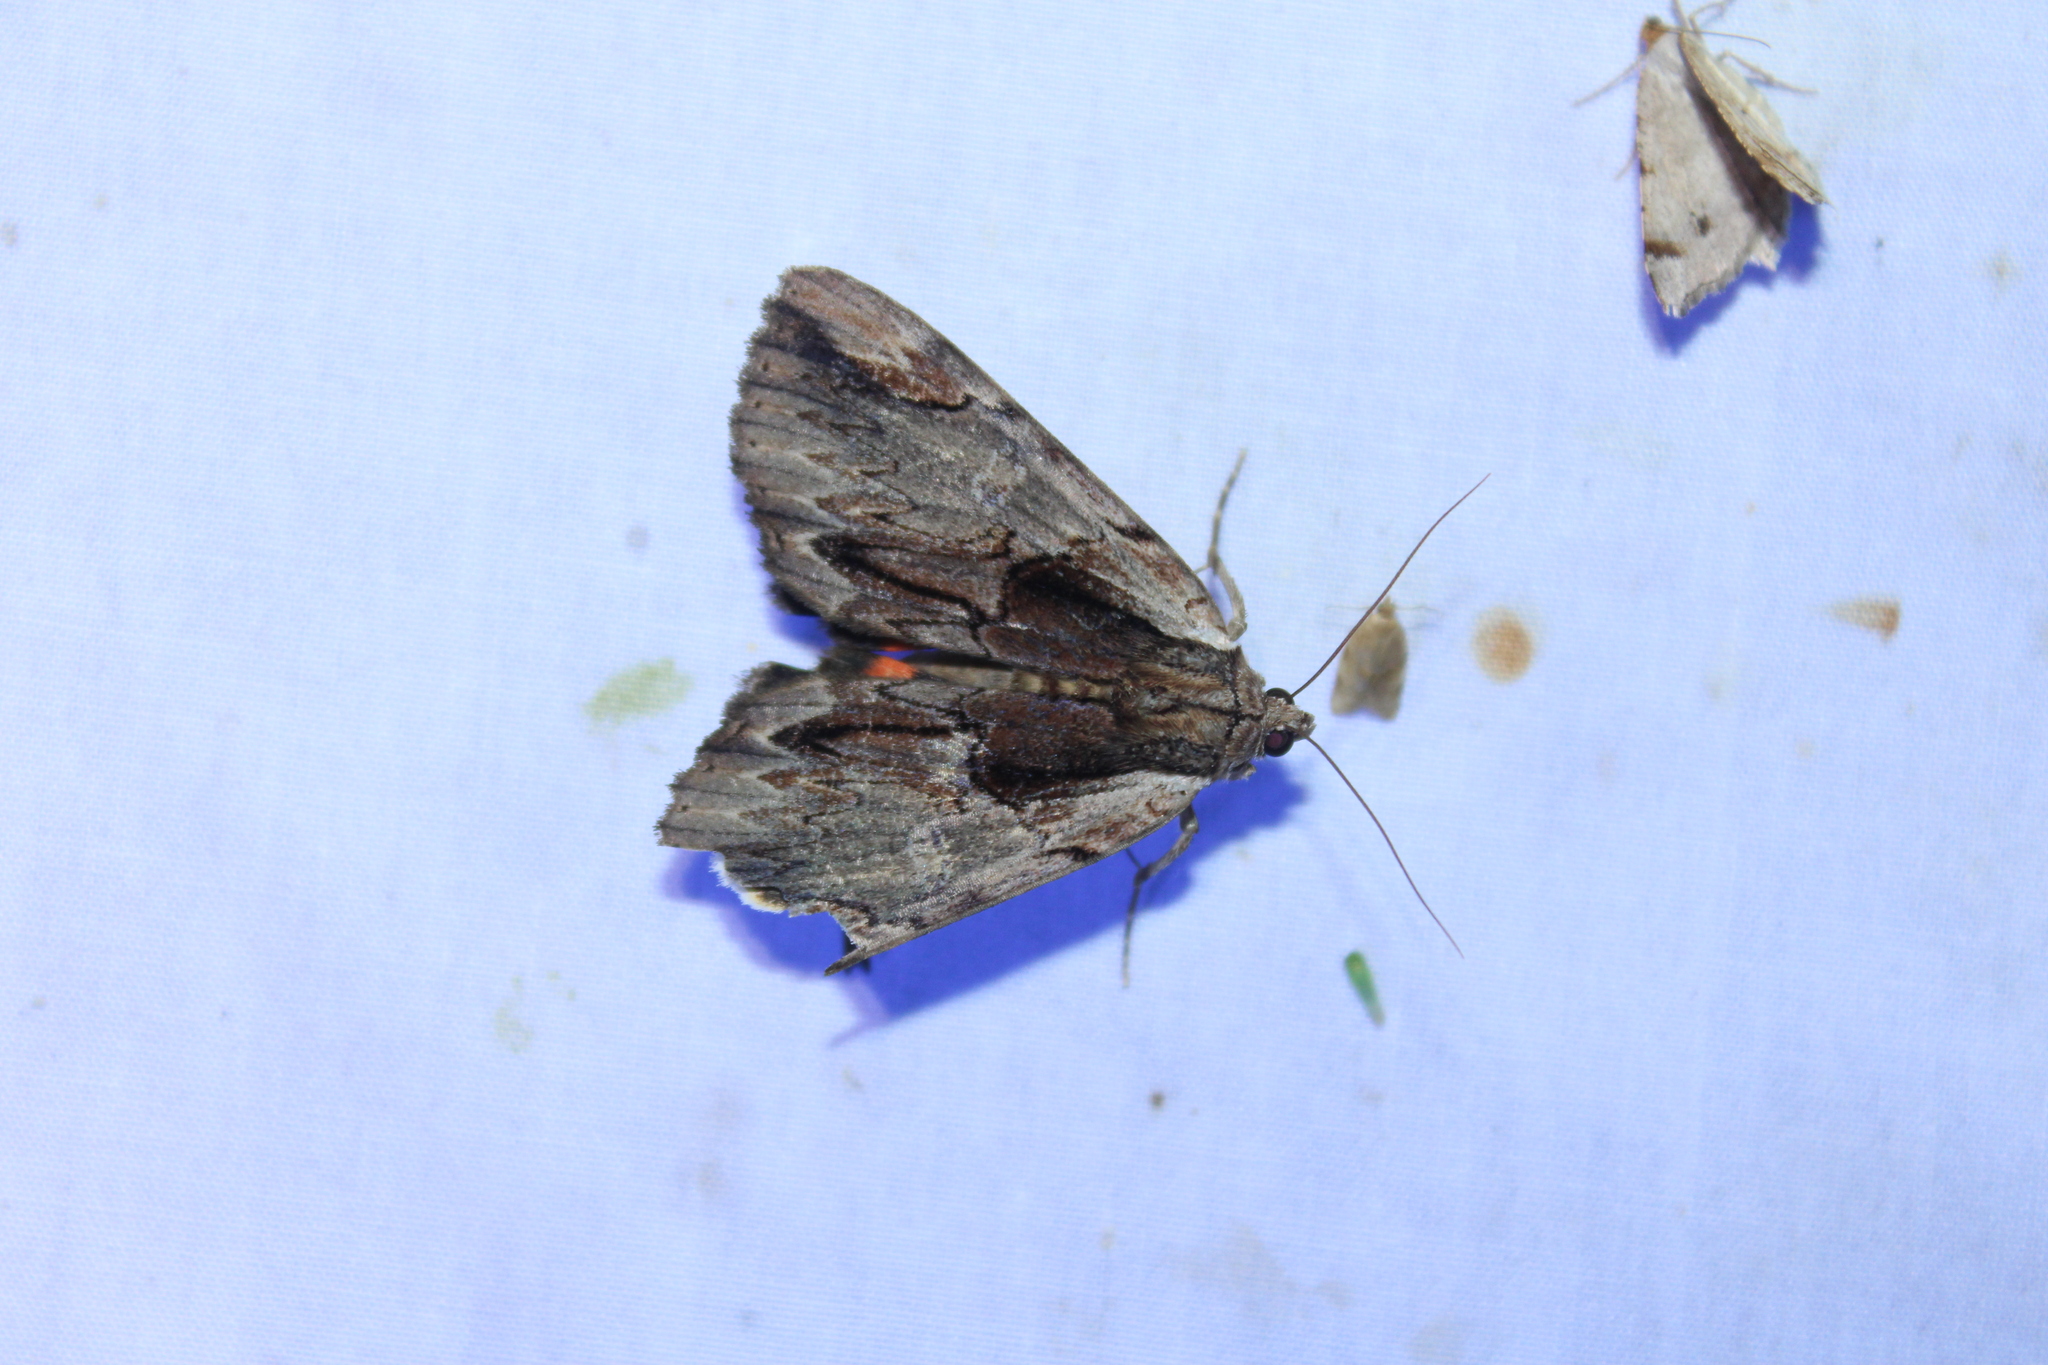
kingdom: Animalia
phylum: Arthropoda
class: Insecta
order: Lepidoptera
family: Erebidae
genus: Catocala
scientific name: Catocala ultronia
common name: Ultronia underwing
